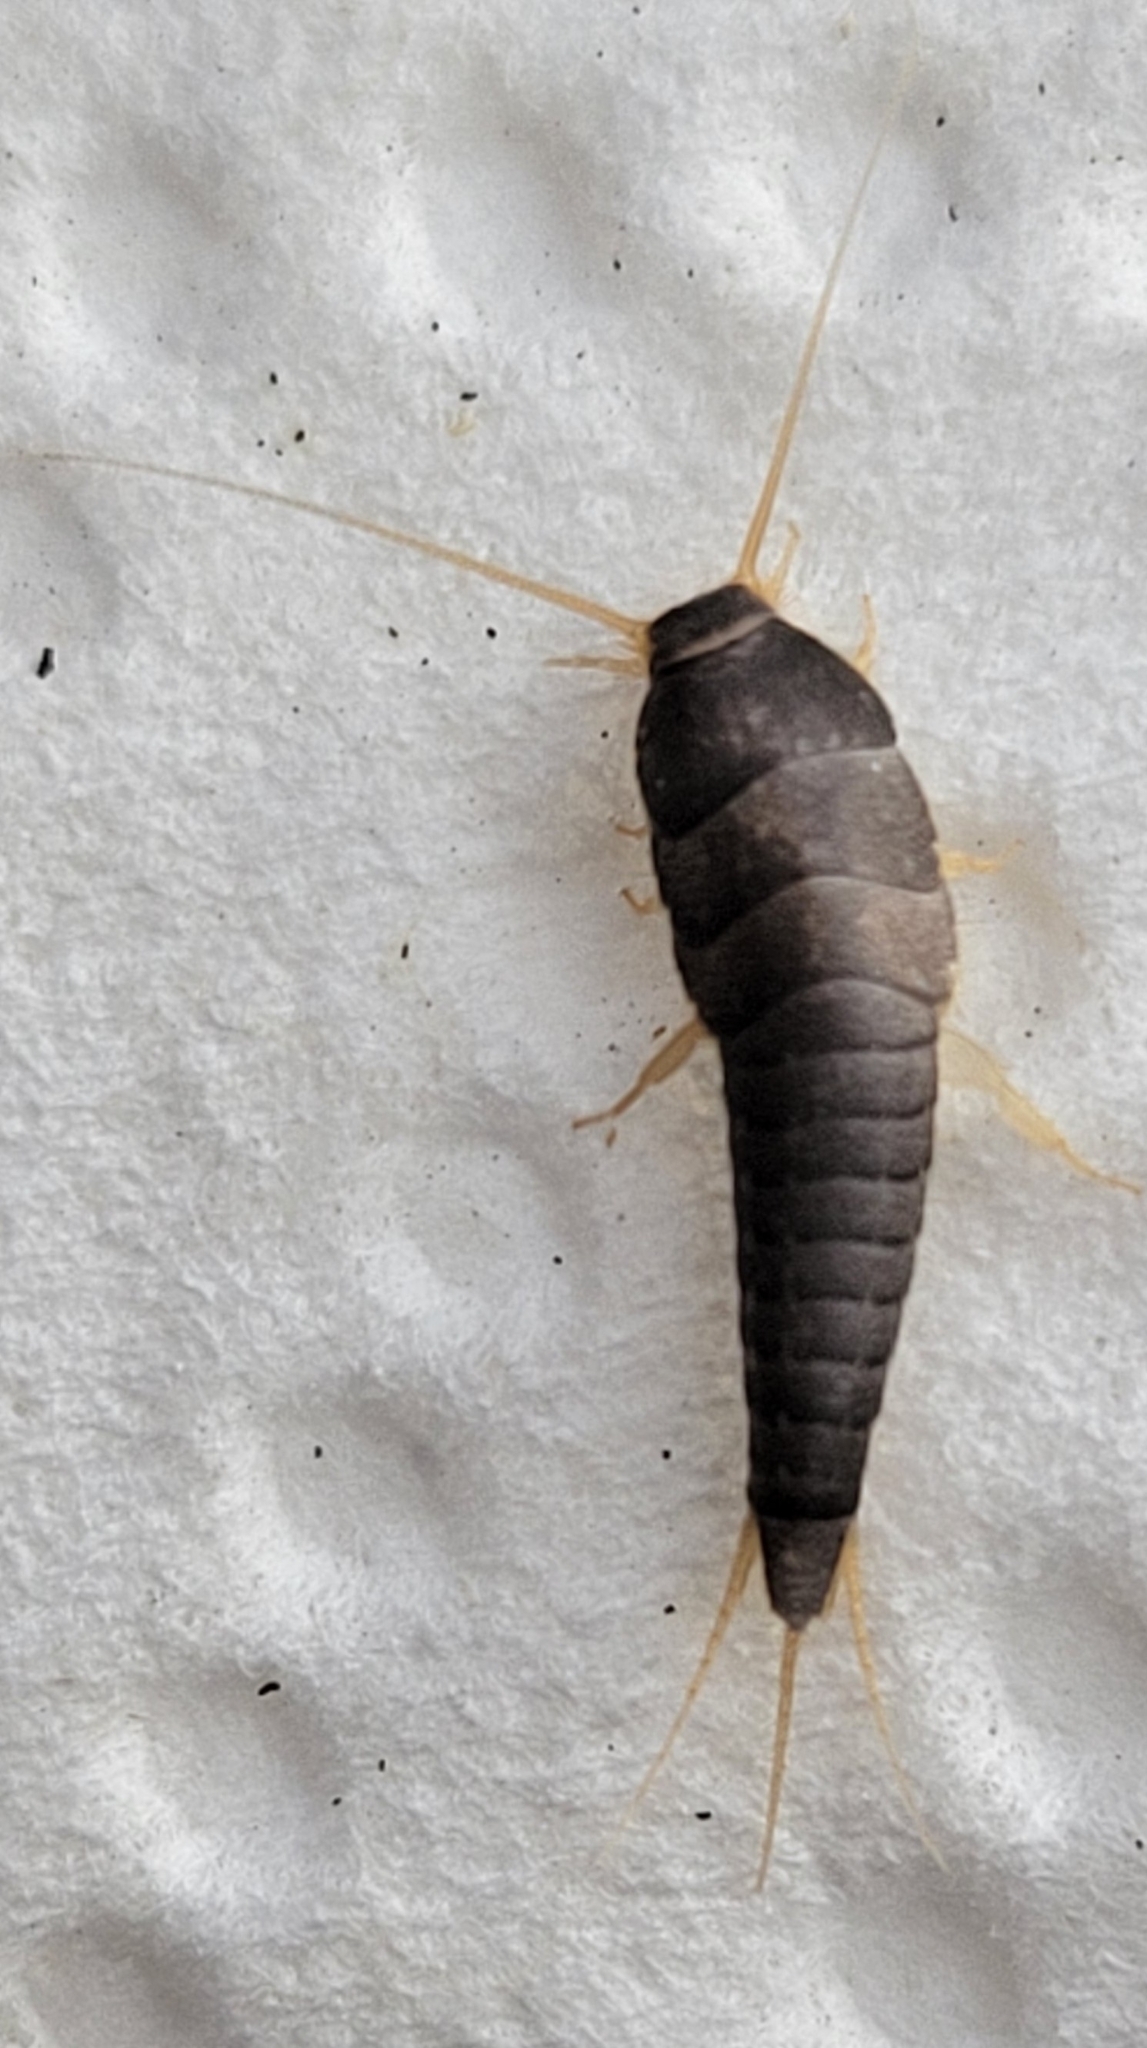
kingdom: Animalia
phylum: Arthropoda
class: Insecta
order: Zygentoma
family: Lepismatidae
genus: Lepisma
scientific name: Lepisma saccharinum
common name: Silverfish
